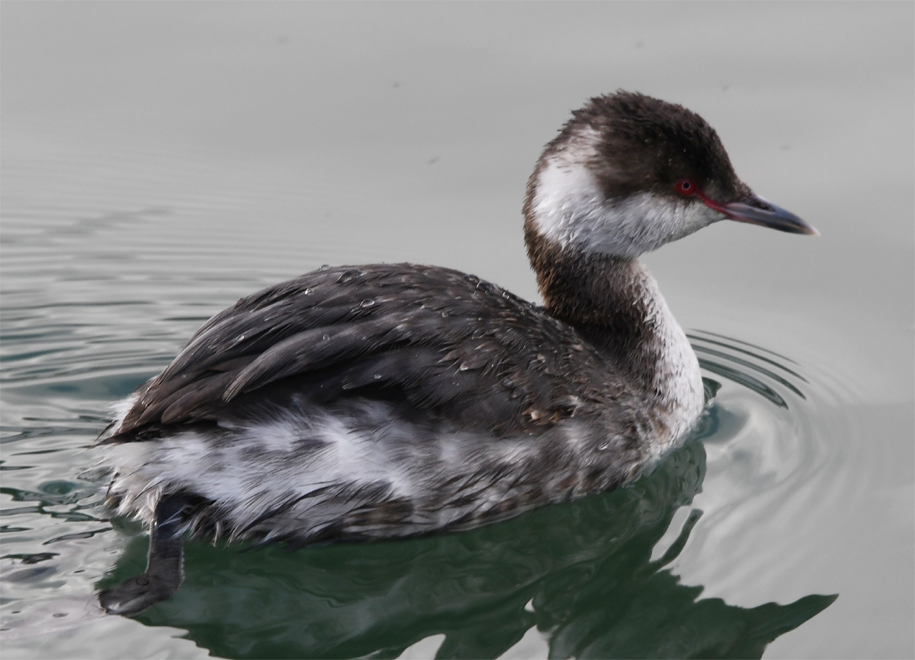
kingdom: Animalia
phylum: Chordata
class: Aves
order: Podicipediformes
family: Podicipedidae
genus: Podiceps
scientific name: Podiceps auritus
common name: Horned grebe
